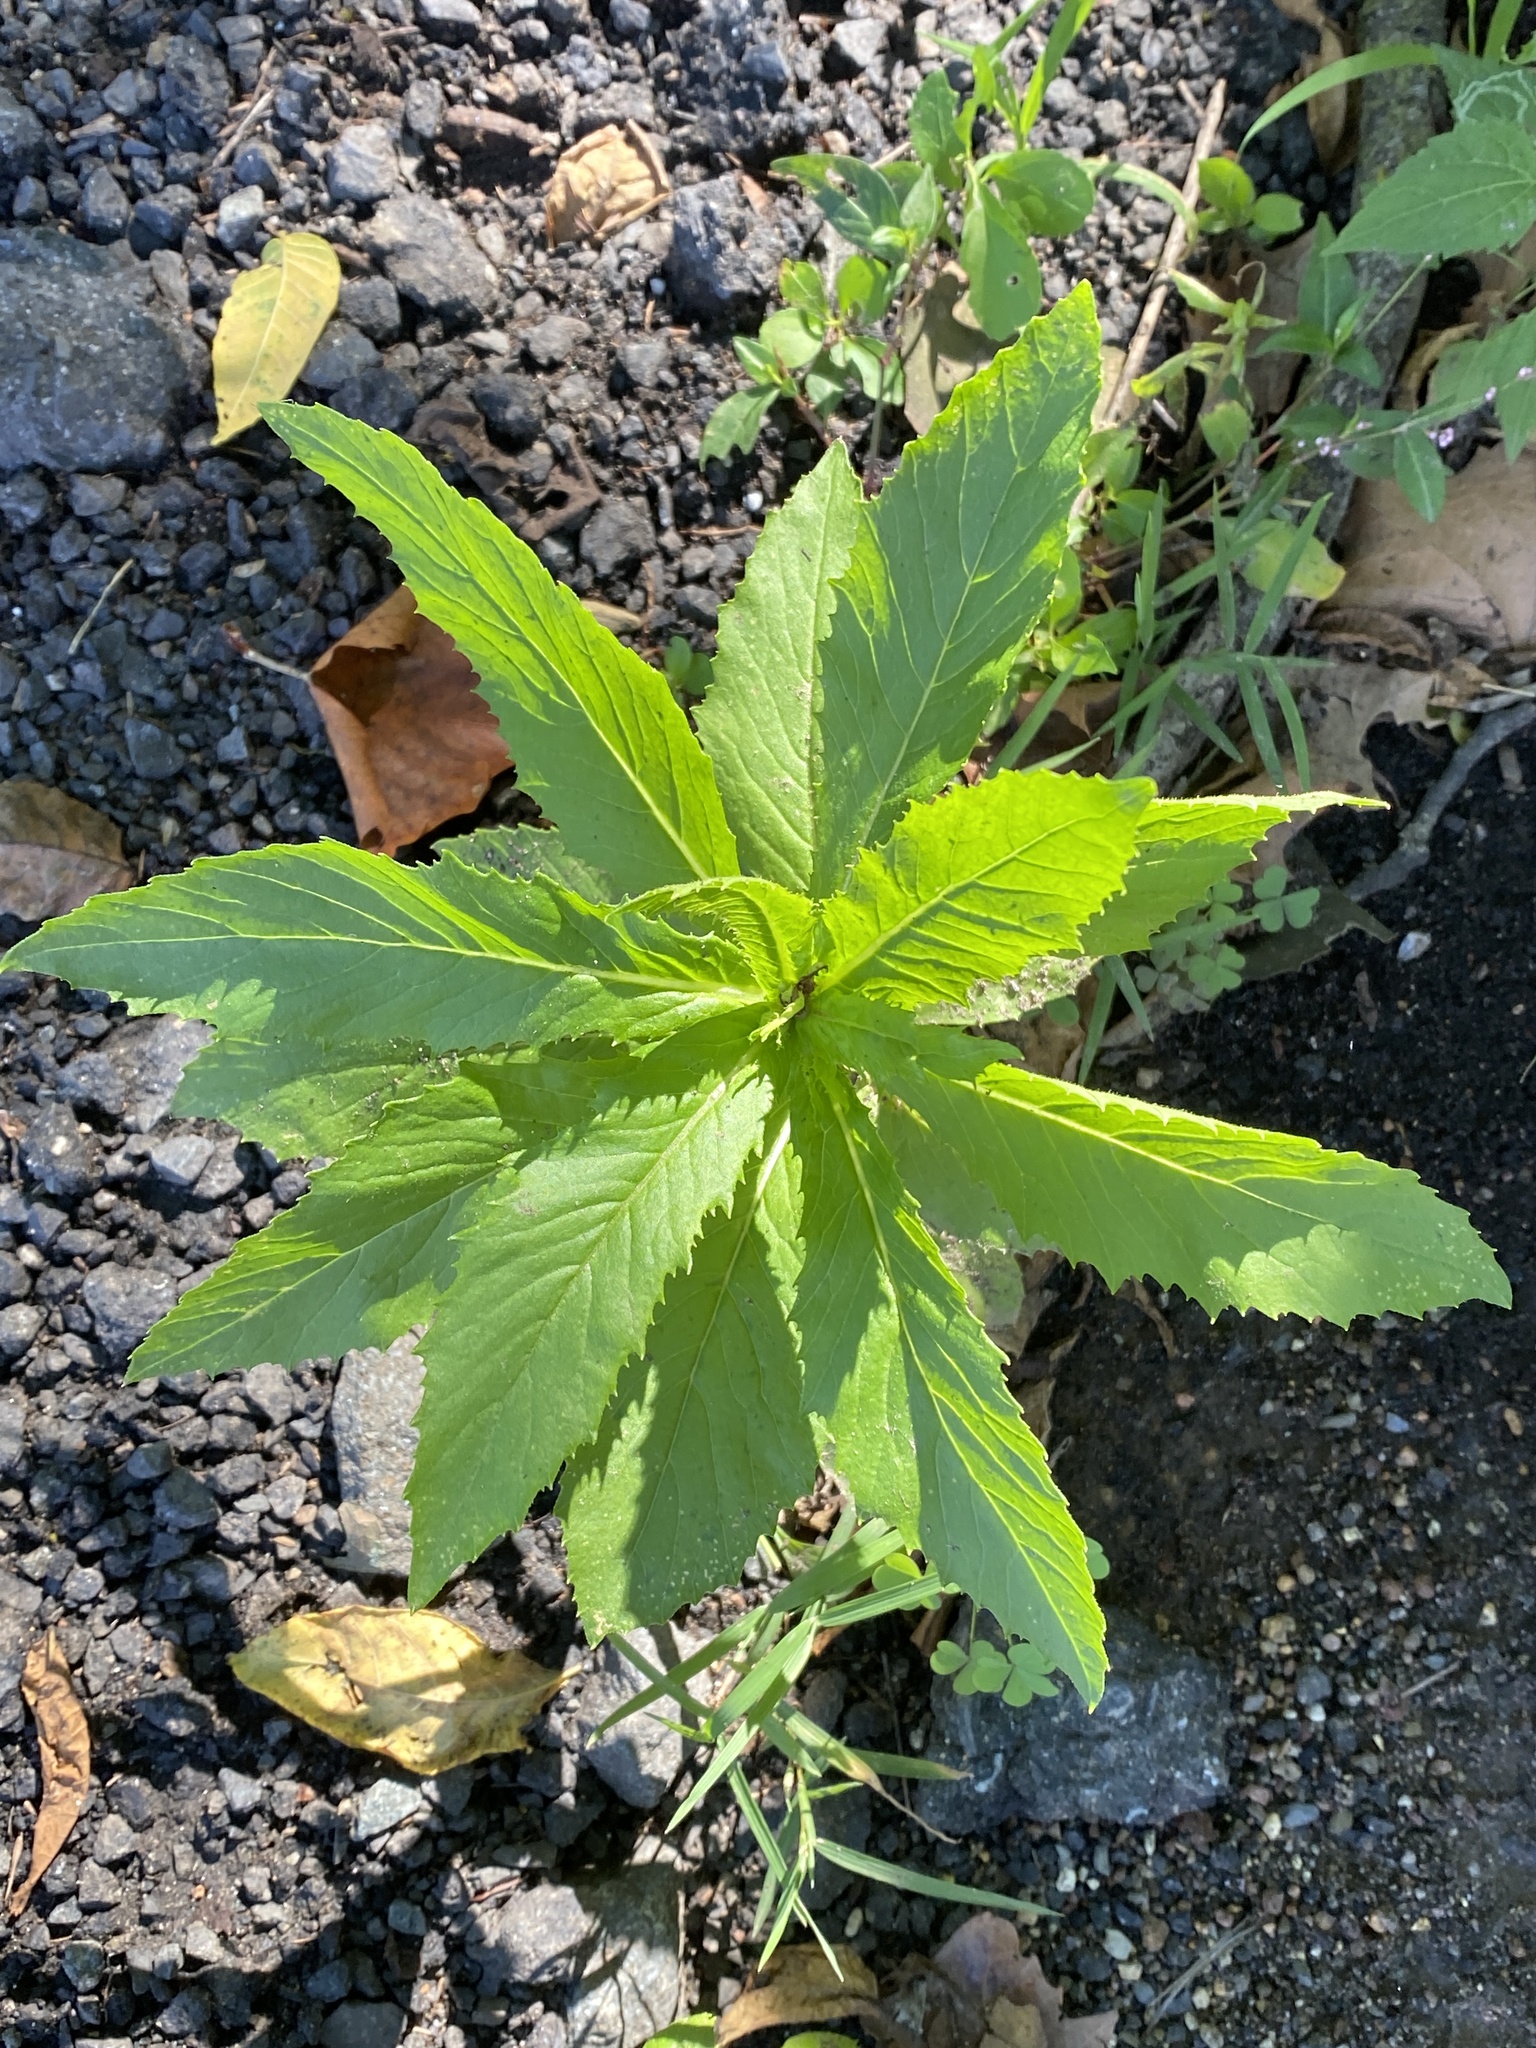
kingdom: Plantae
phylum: Tracheophyta
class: Magnoliopsida
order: Asterales
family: Asteraceae
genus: Erechtites
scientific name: Erechtites hieraciifolius
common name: American burnweed
